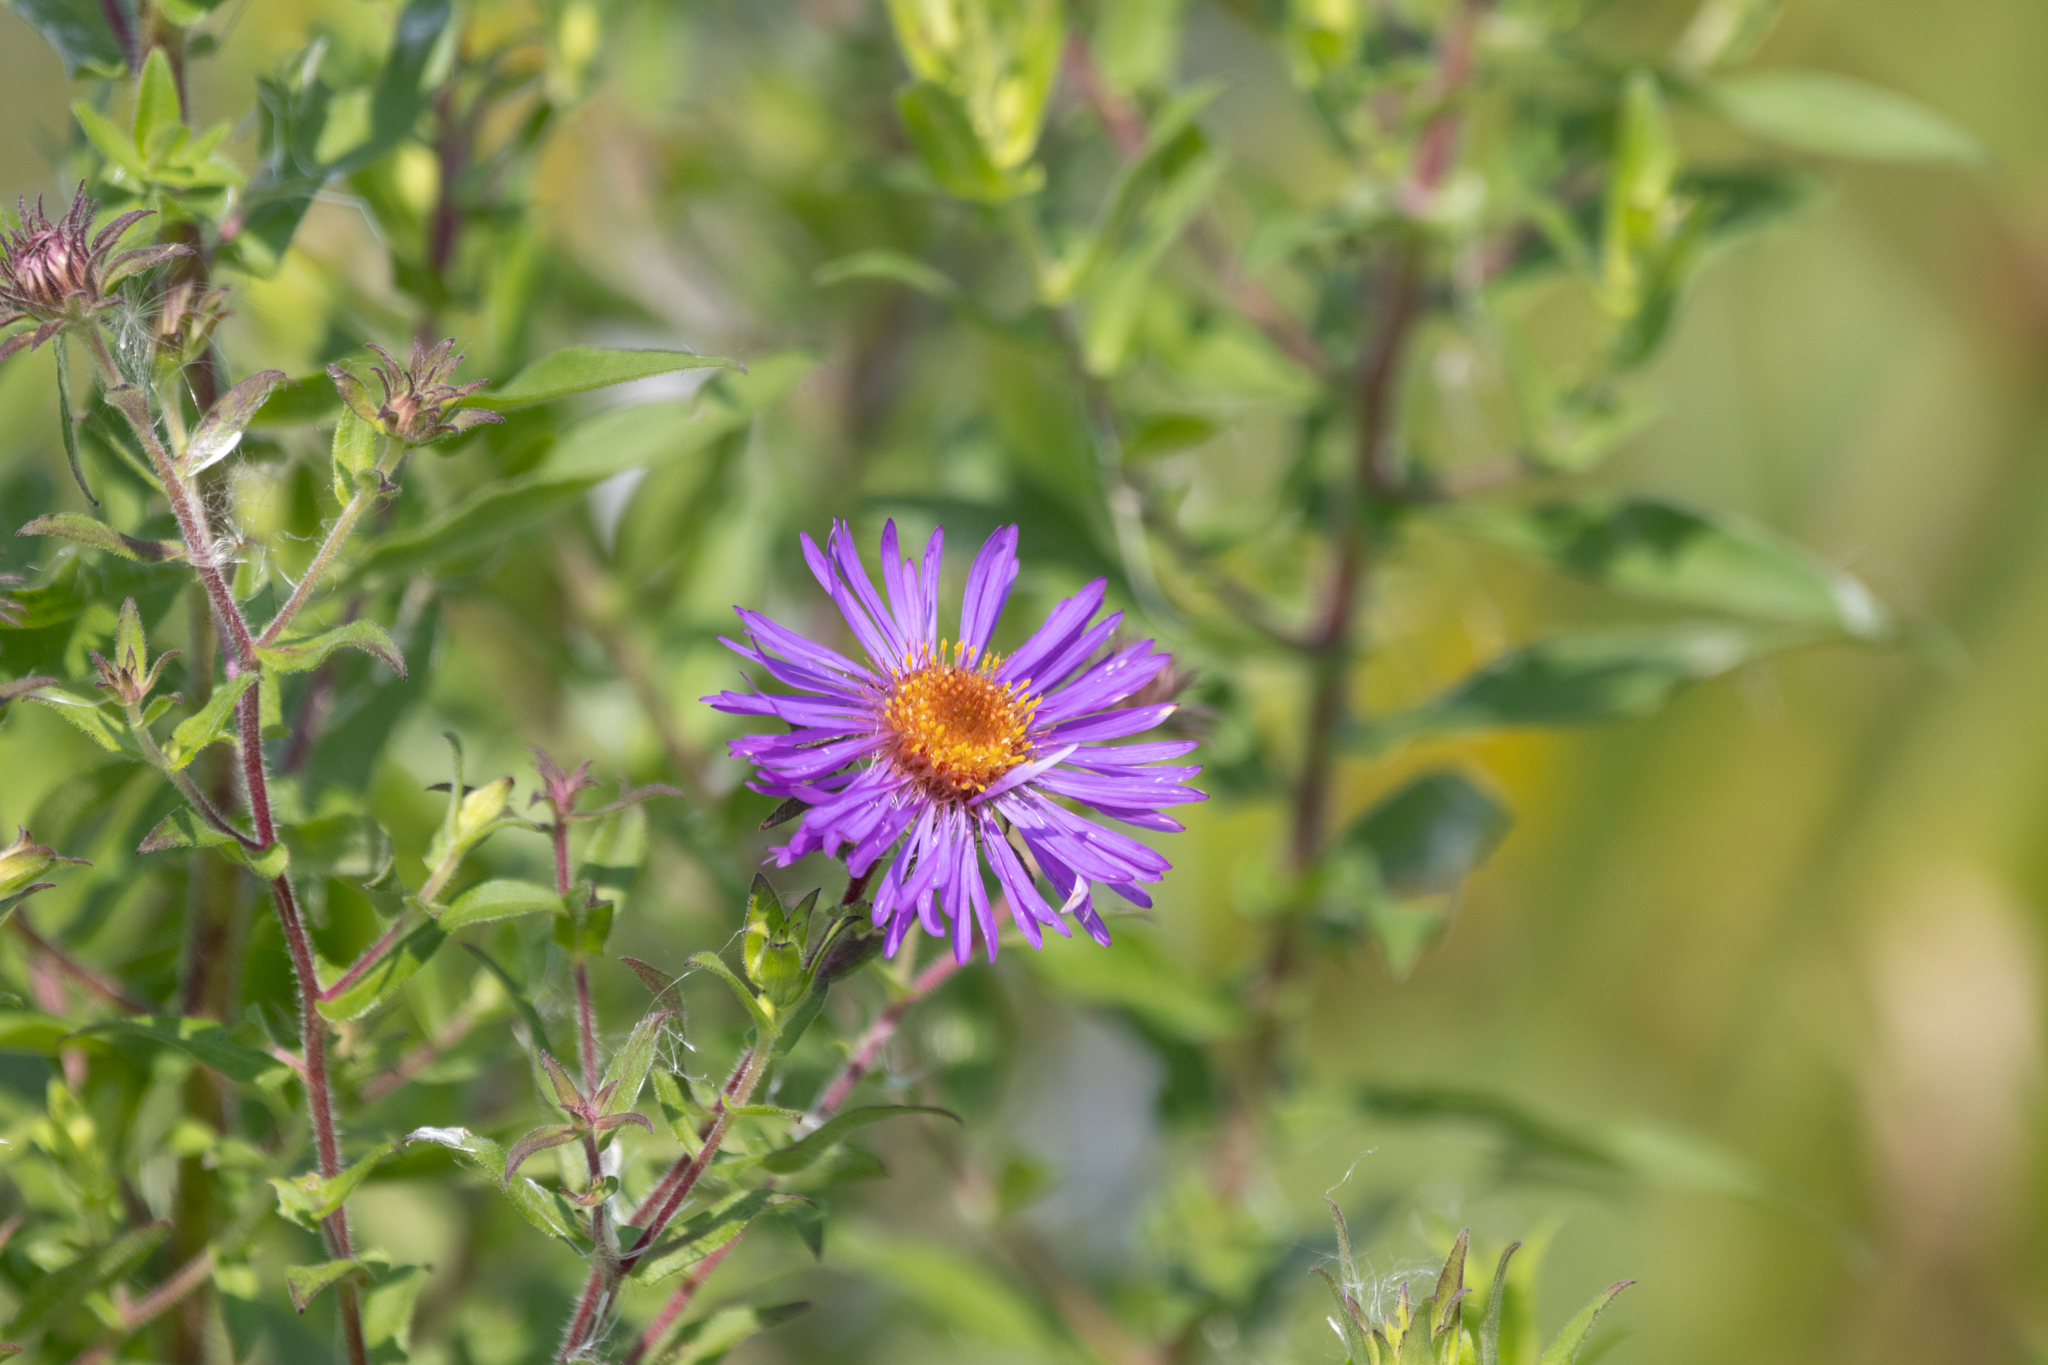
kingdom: Plantae
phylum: Tracheophyta
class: Magnoliopsida
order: Asterales
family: Asteraceae
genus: Symphyotrichum
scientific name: Symphyotrichum novae-angliae
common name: Michaelmas daisy
